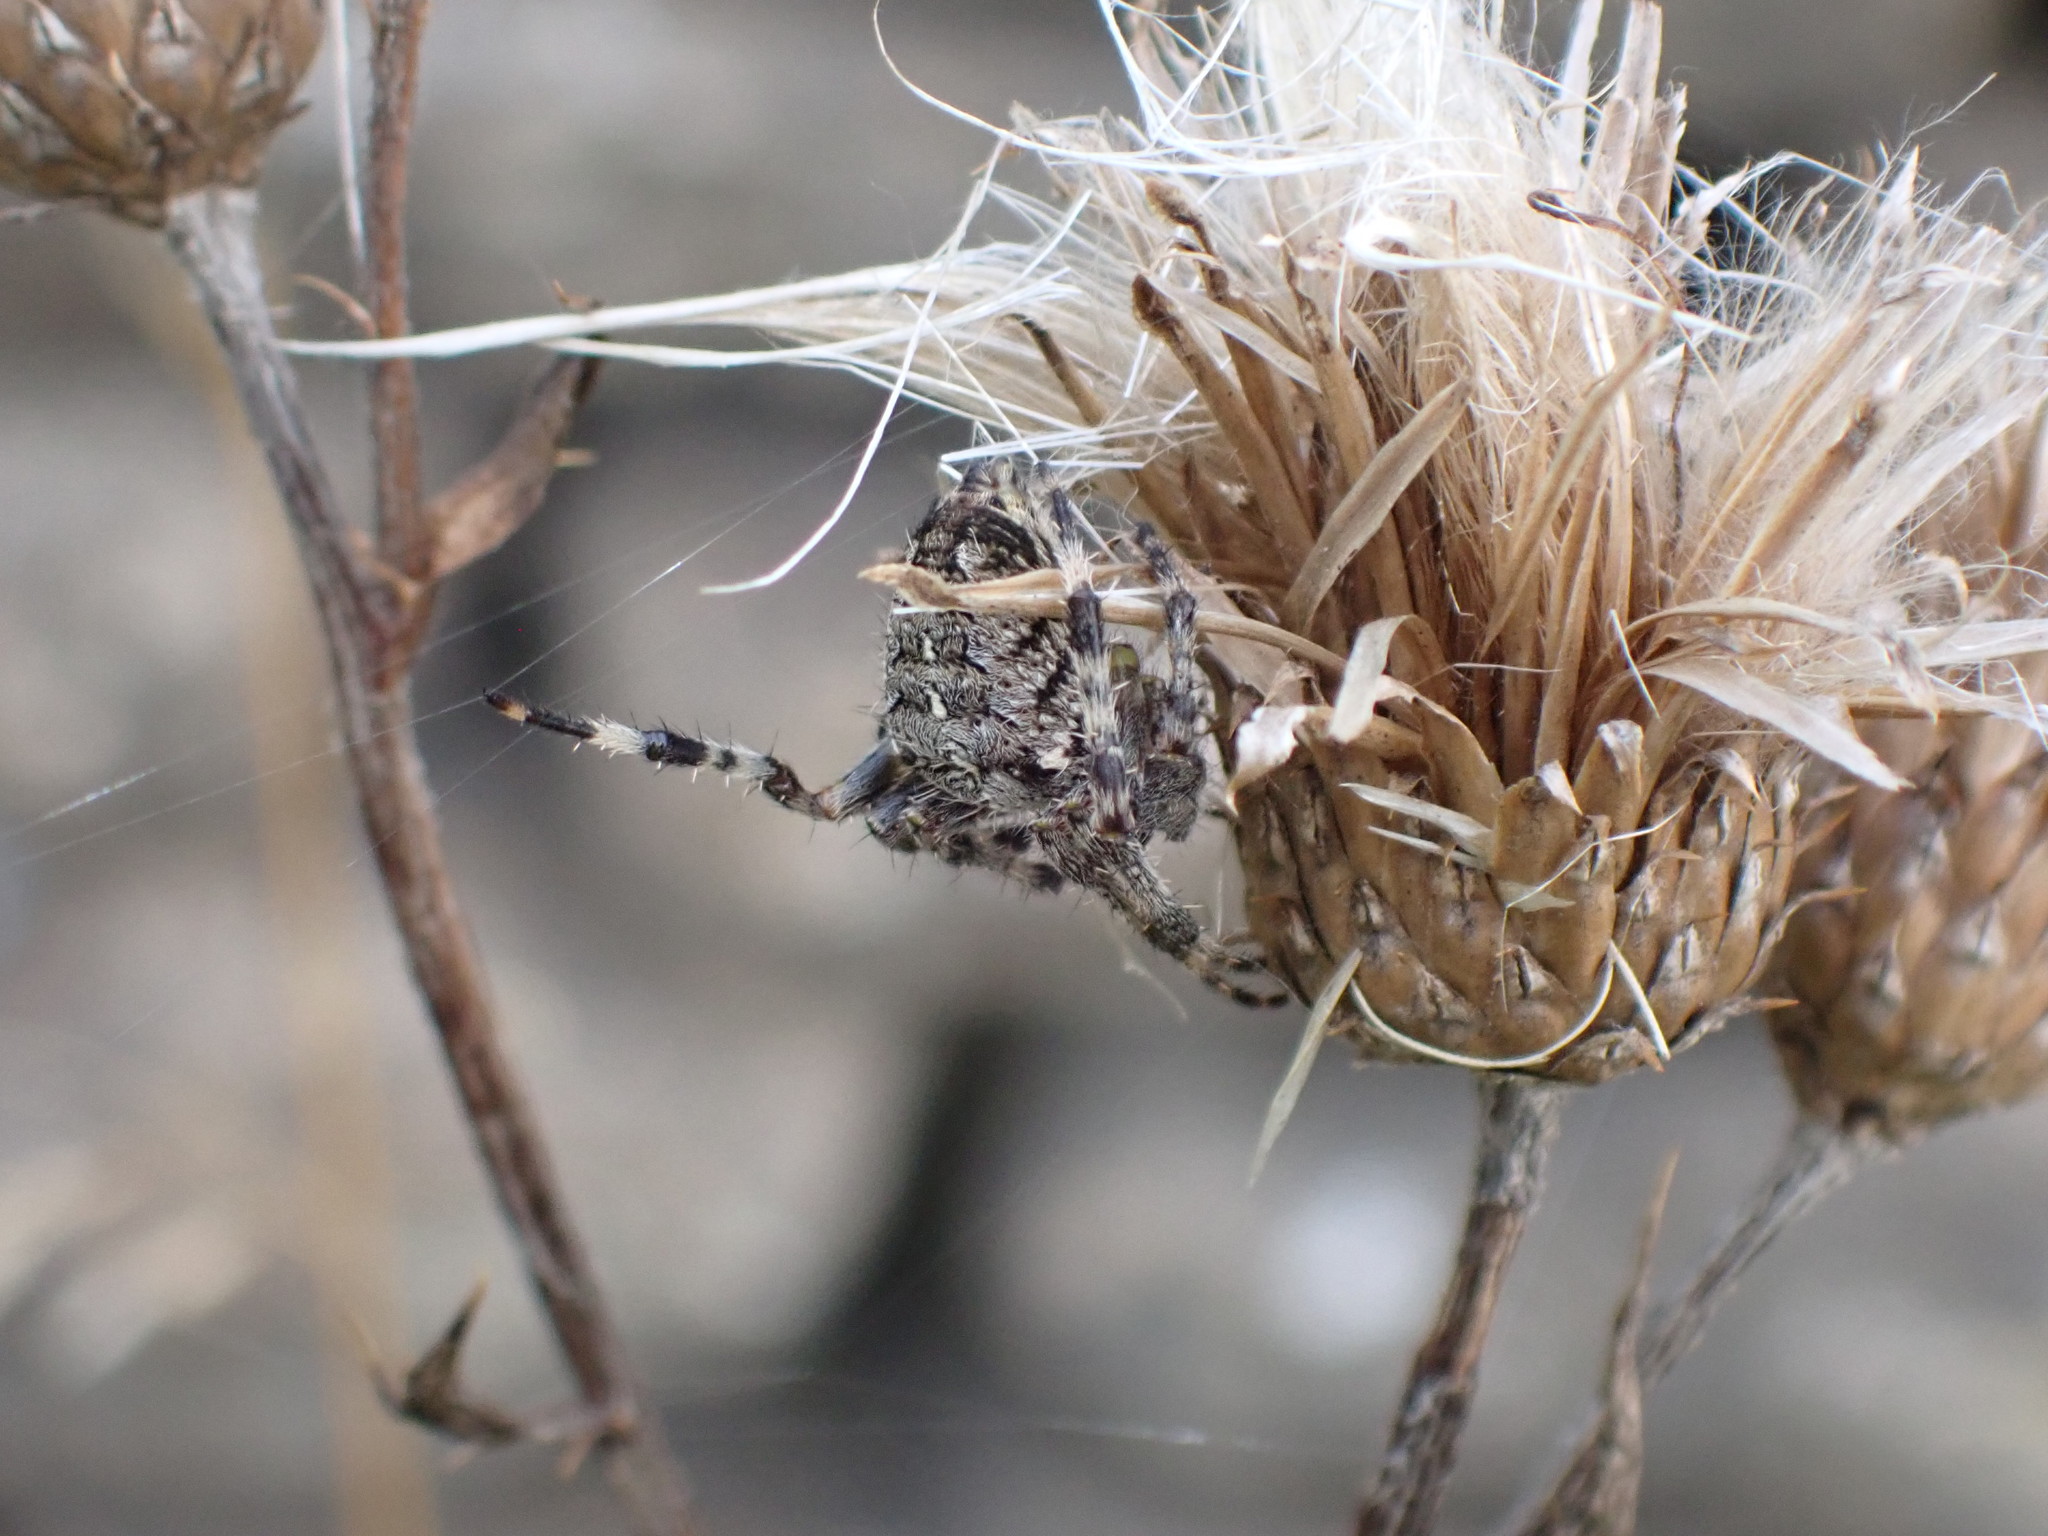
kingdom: Animalia
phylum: Arthropoda
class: Arachnida
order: Araneae
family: Araneidae
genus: Araneus
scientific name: Araneus diadematus
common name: Cross orbweaver
